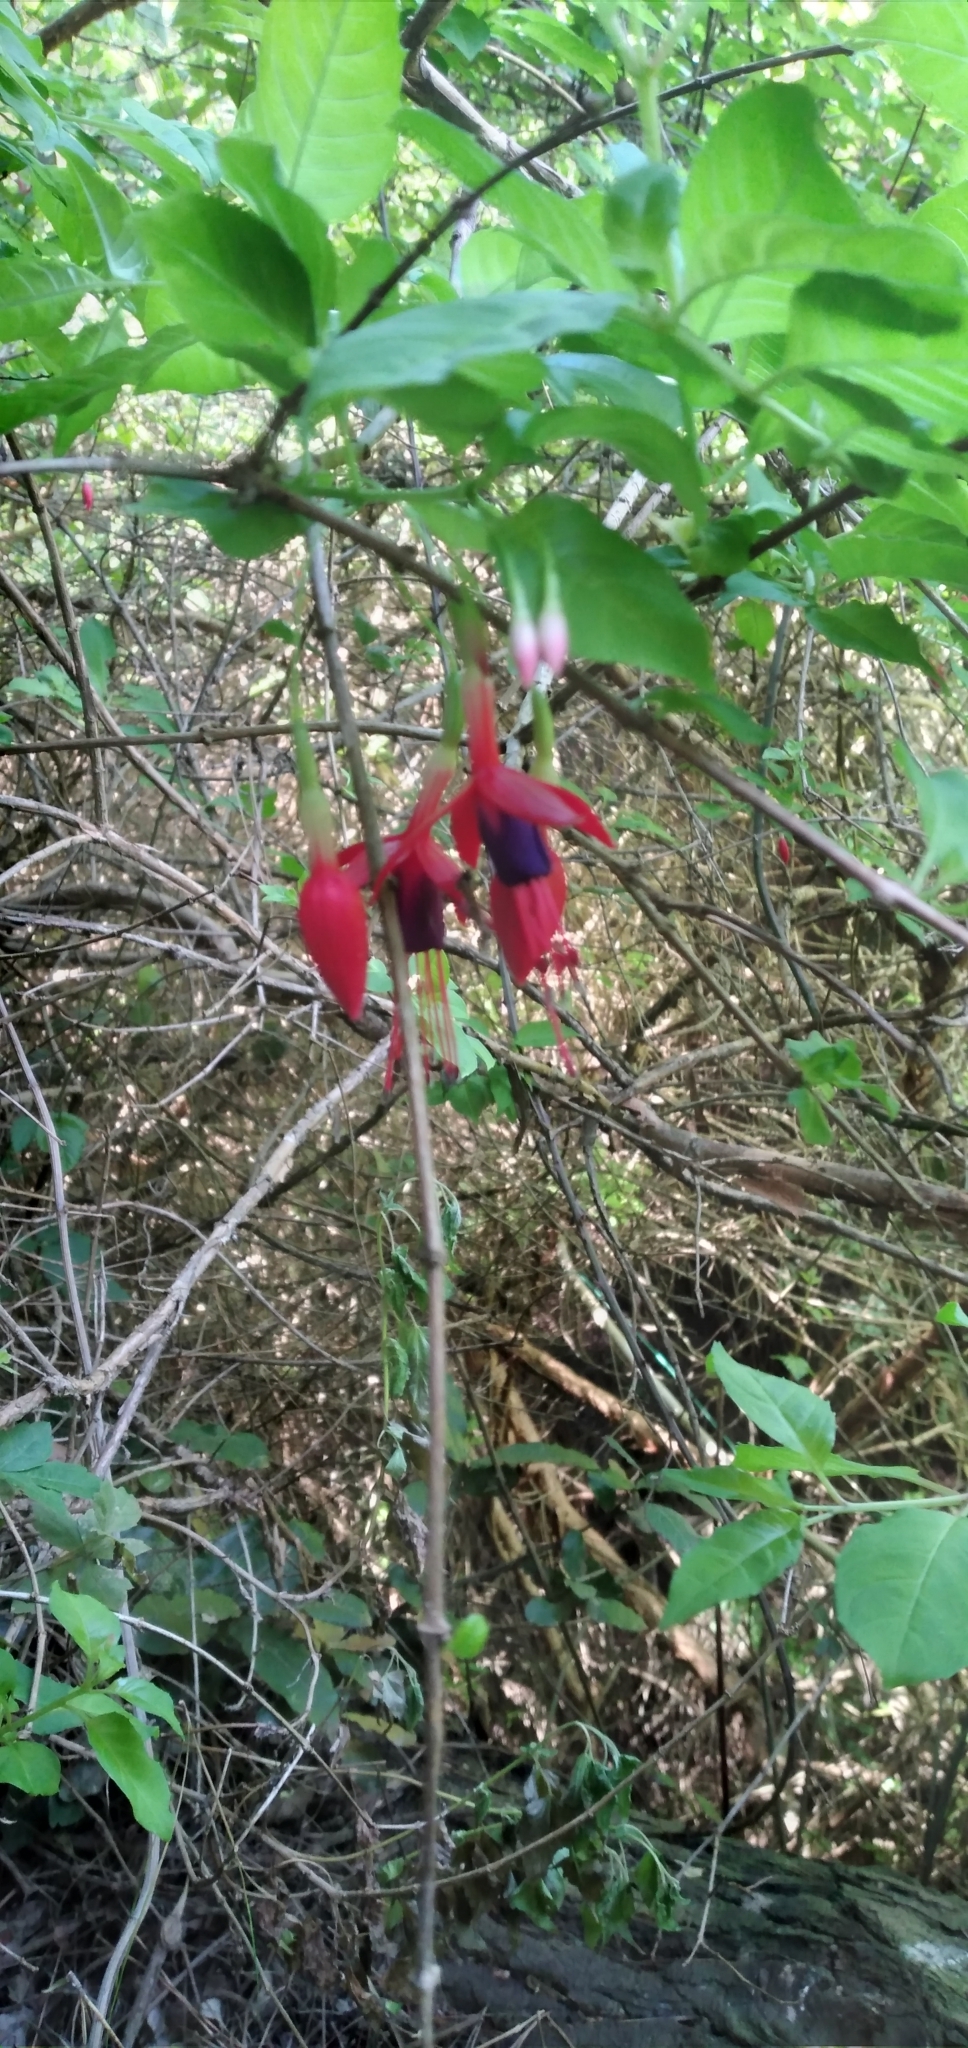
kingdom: Plantae
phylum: Tracheophyta
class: Magnoliopsida
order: Myrtales
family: Onagraceae
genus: Fuchsia
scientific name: Fuchsia magellanica
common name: Hardy fuchsia
